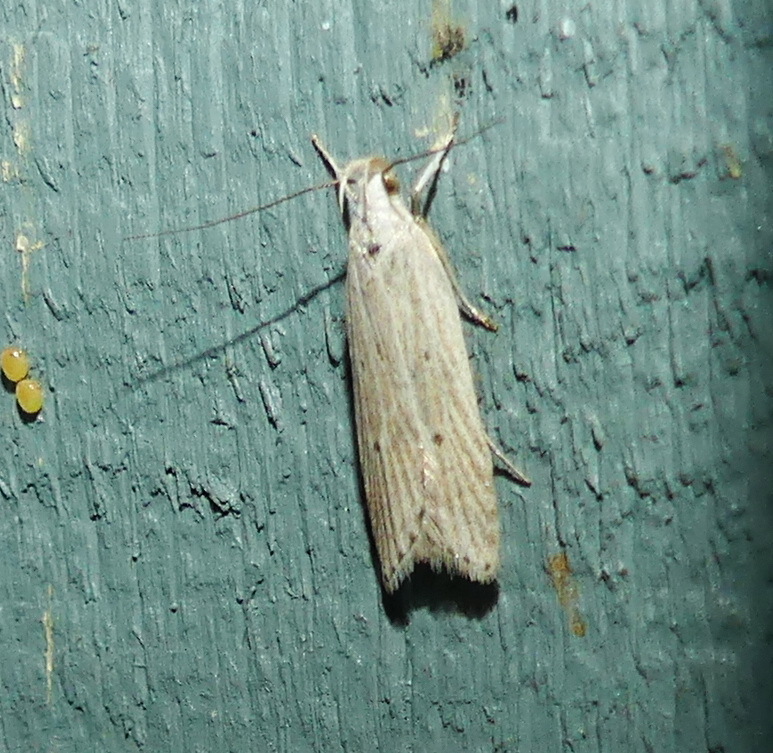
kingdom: Animalia
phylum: Arthropoda
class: Insecta
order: Lepidoptera
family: Gelechiidae
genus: Helcystogramma
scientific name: Helcystogramma fernaldella
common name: Fernald's helcystogramma moth
